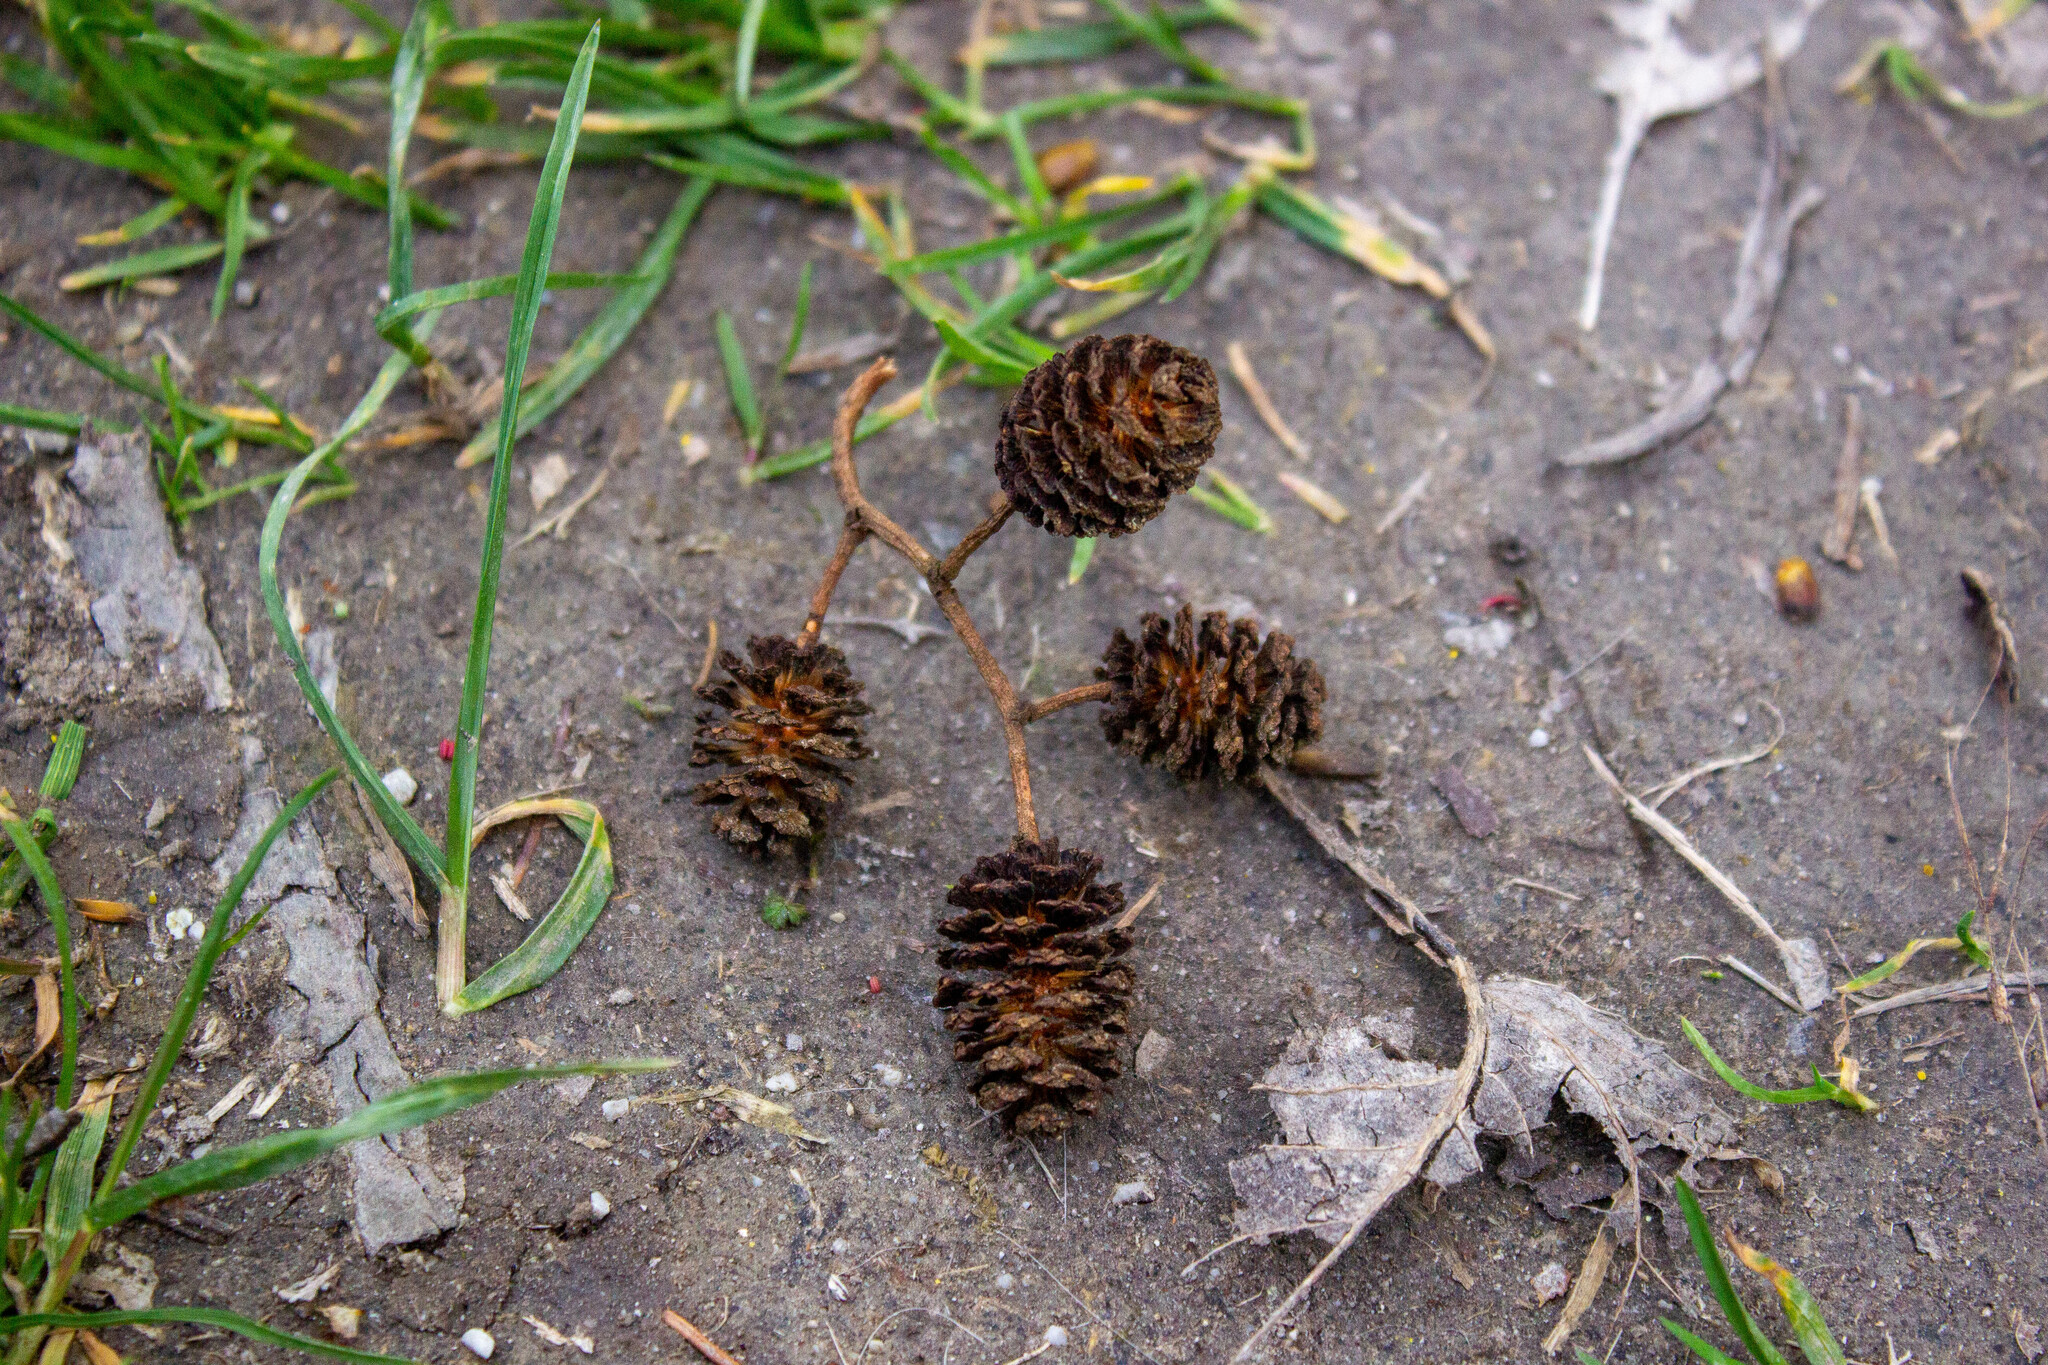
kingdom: Plantae
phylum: Tracheophyta
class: Magnoliopsida
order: Fagales
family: Betulaceae
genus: Alnus
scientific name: Alnus glutinosa
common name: Black alder
